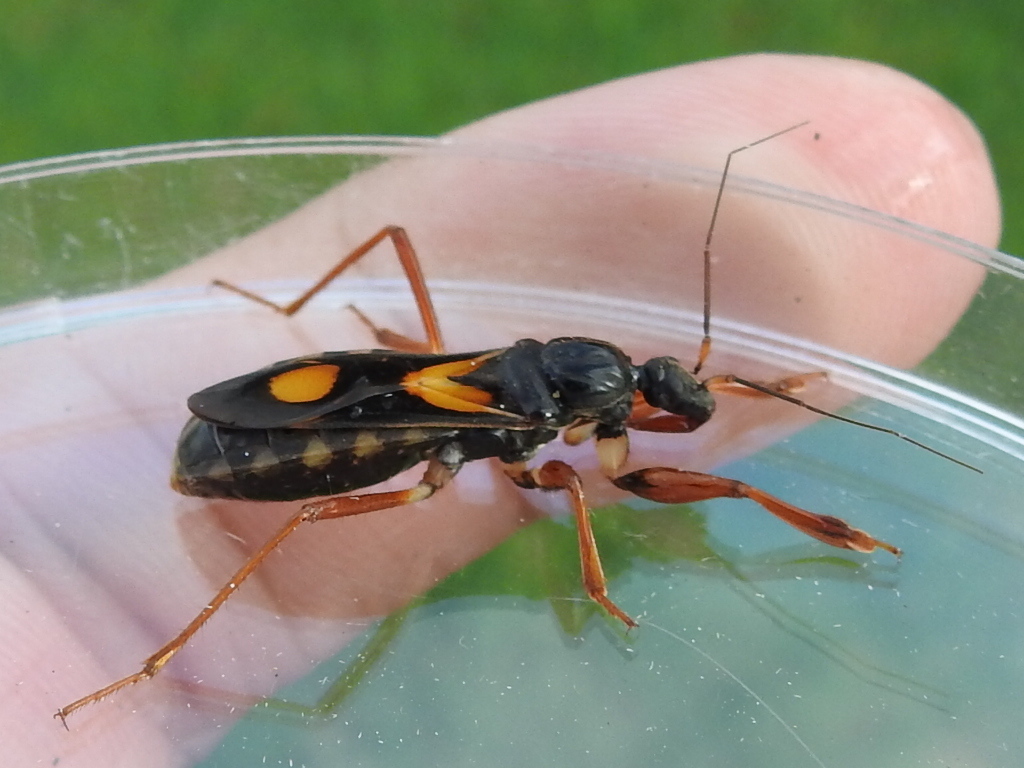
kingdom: Animalia
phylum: Arthropoda
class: Insecta
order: Hemiptera
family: Reduviidae
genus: Rasahus
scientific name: Rasahus hamatus
